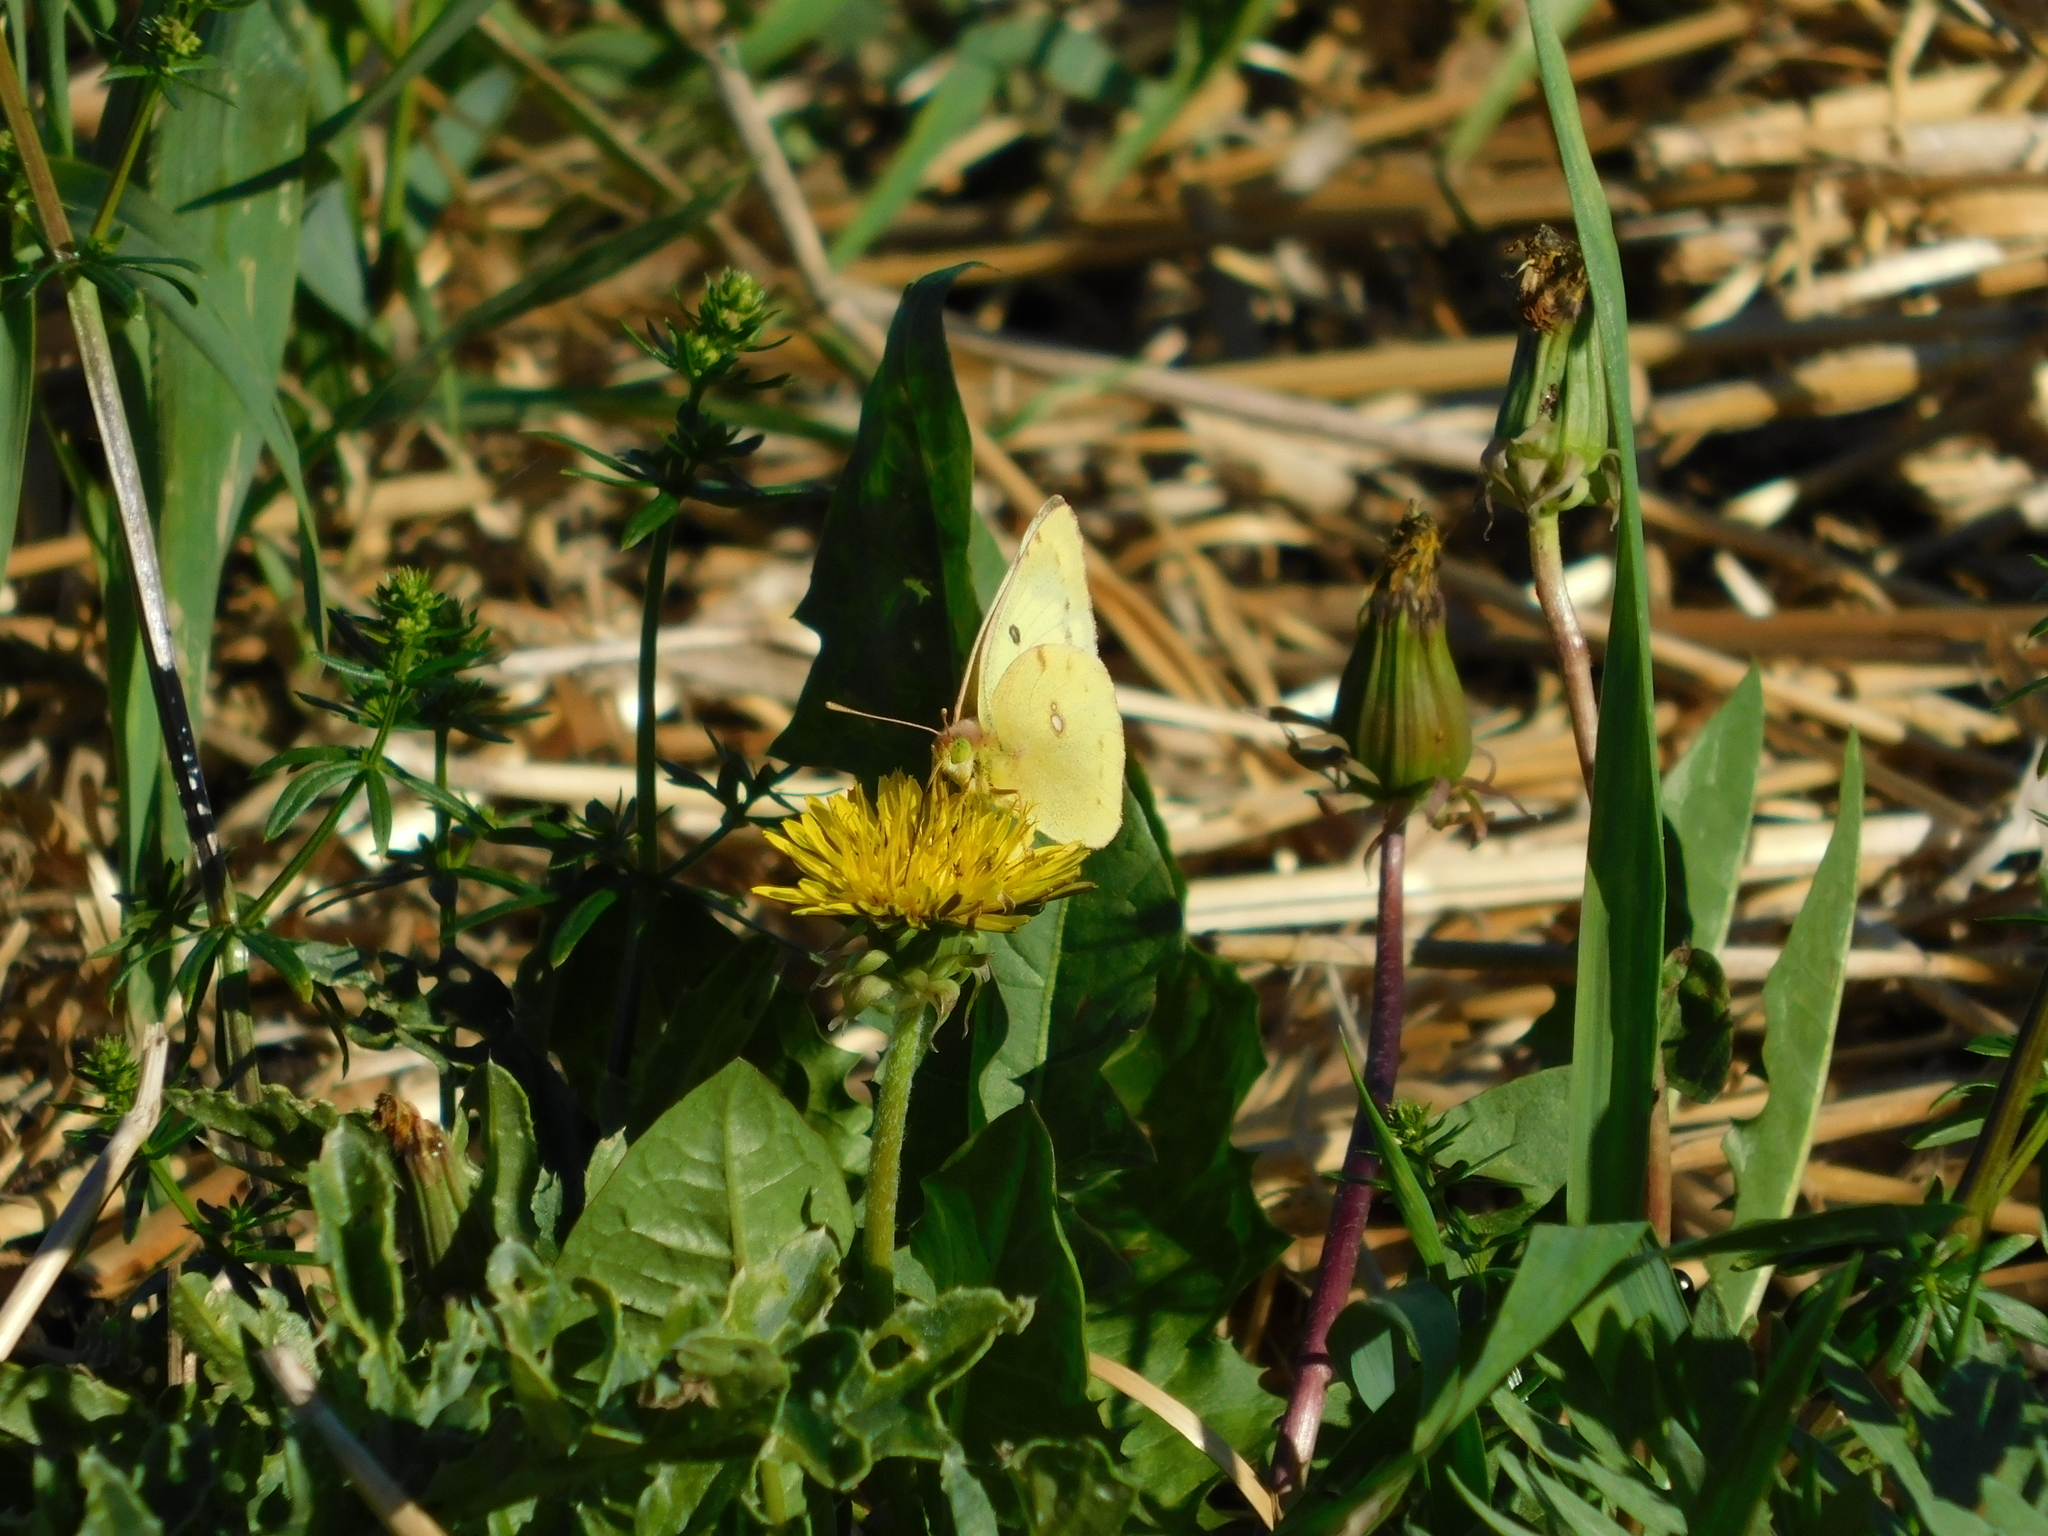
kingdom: Animalia
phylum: Arthropoda
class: Insecta
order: Lepidoptera
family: Pieridae
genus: Colias
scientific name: Colias hyale
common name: Pale clouded yellow
